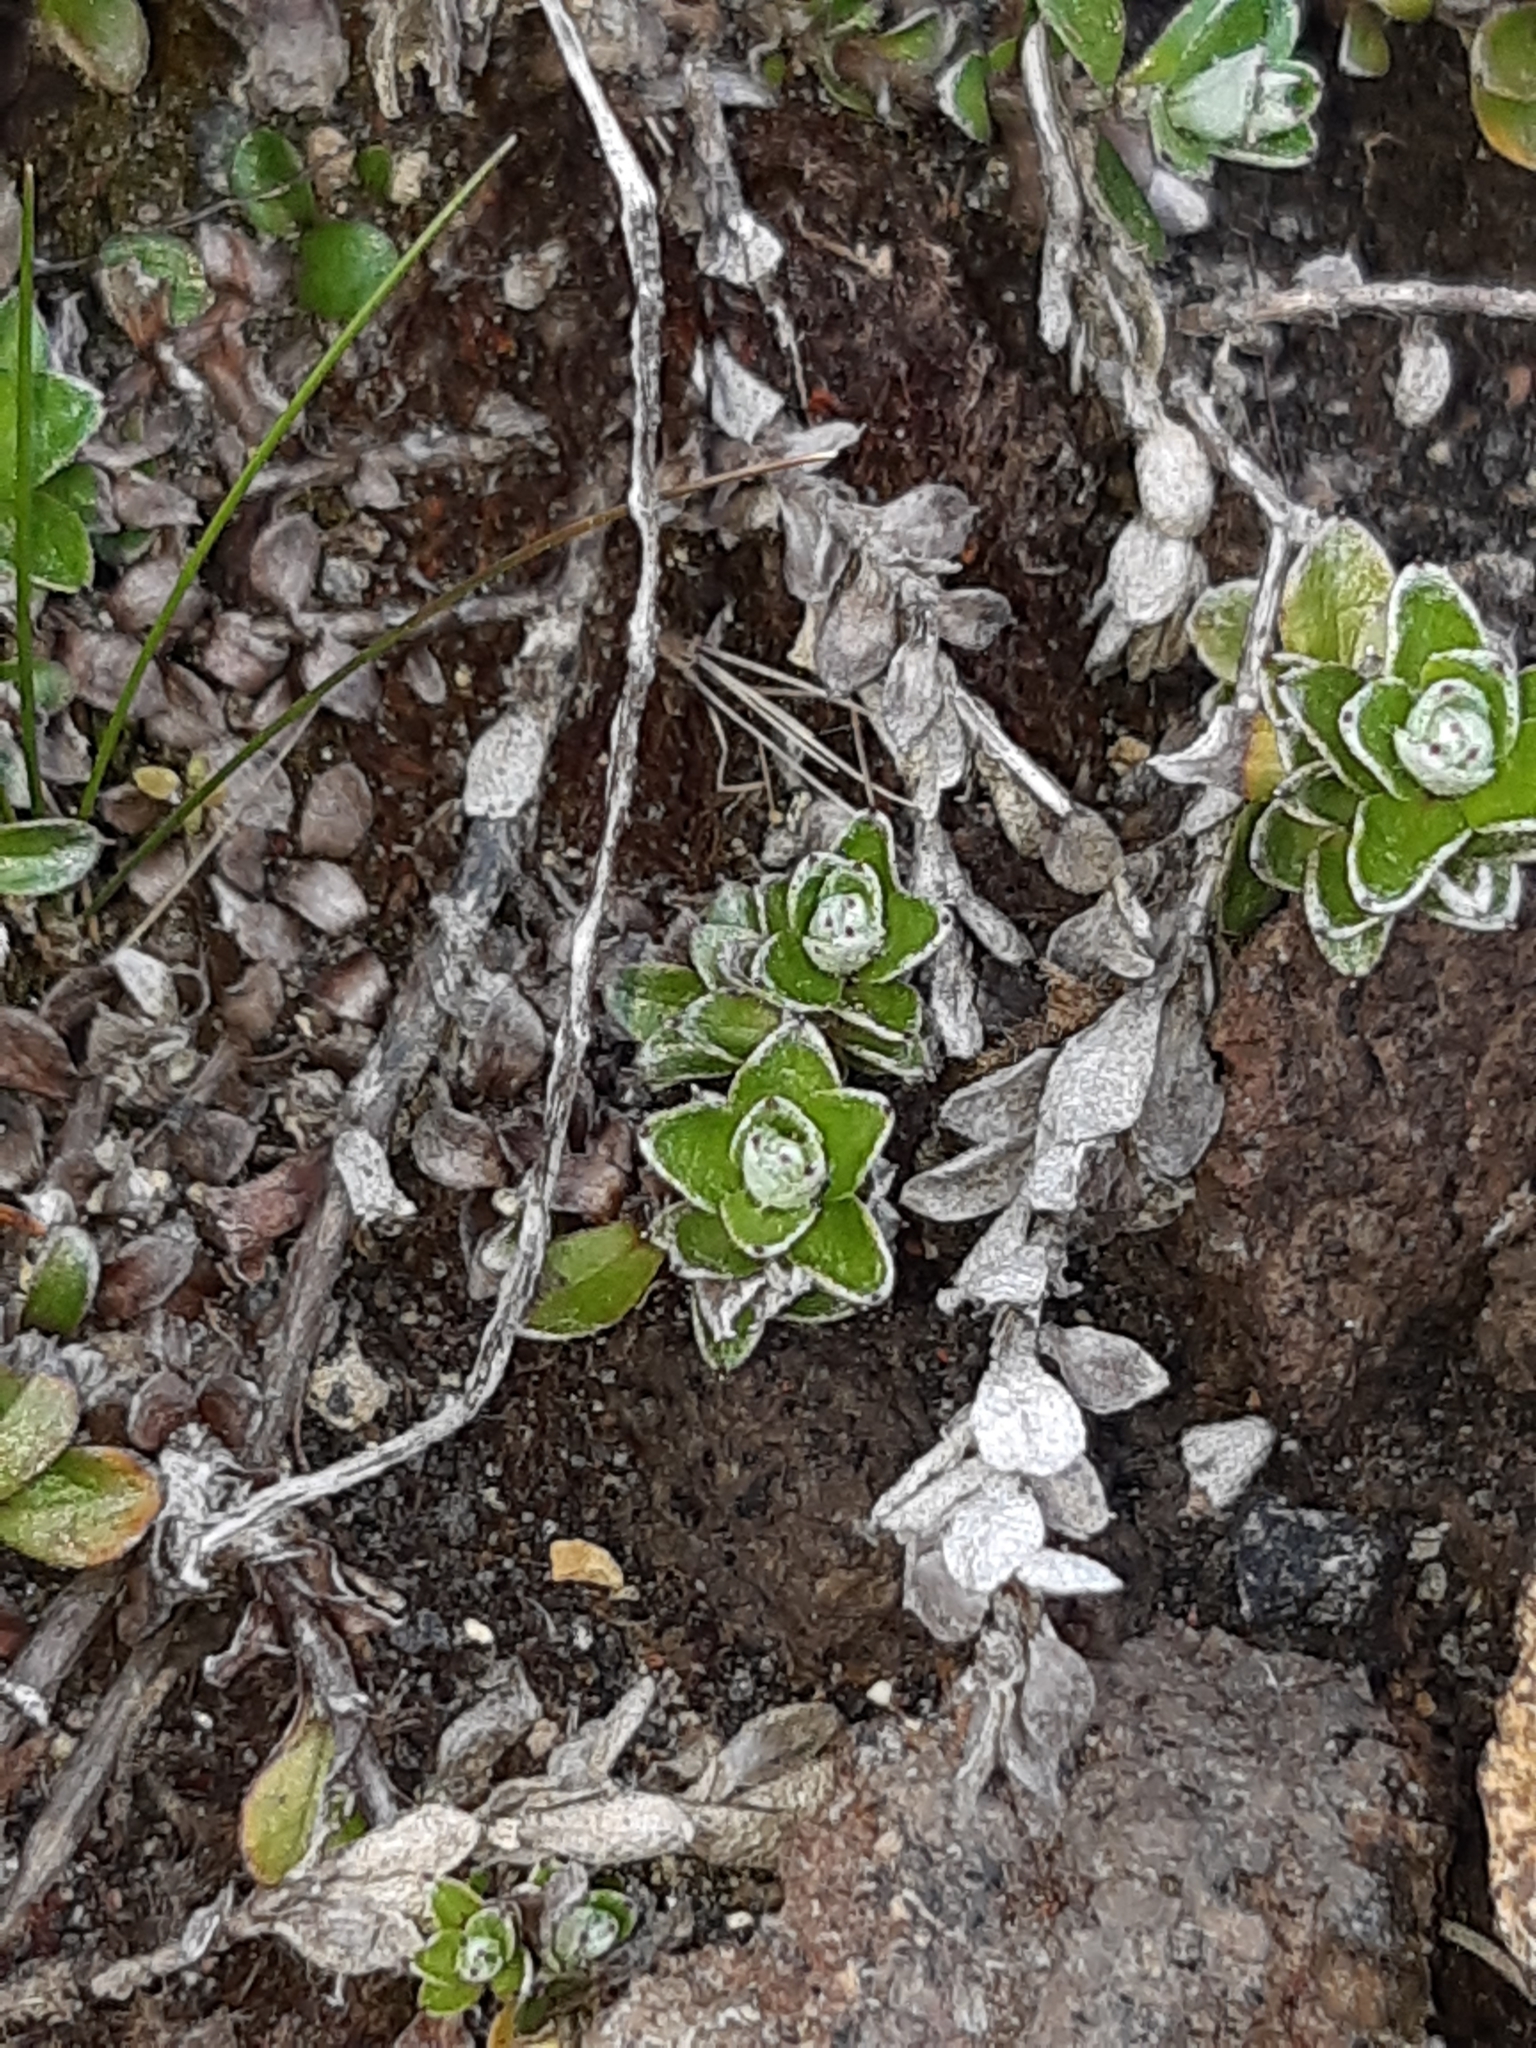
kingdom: Plantae
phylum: Tracheophyta
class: Magnoliopsida
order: Asterales
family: Asteraceae
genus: Anaphalioides
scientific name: Anaphalioides alpina
